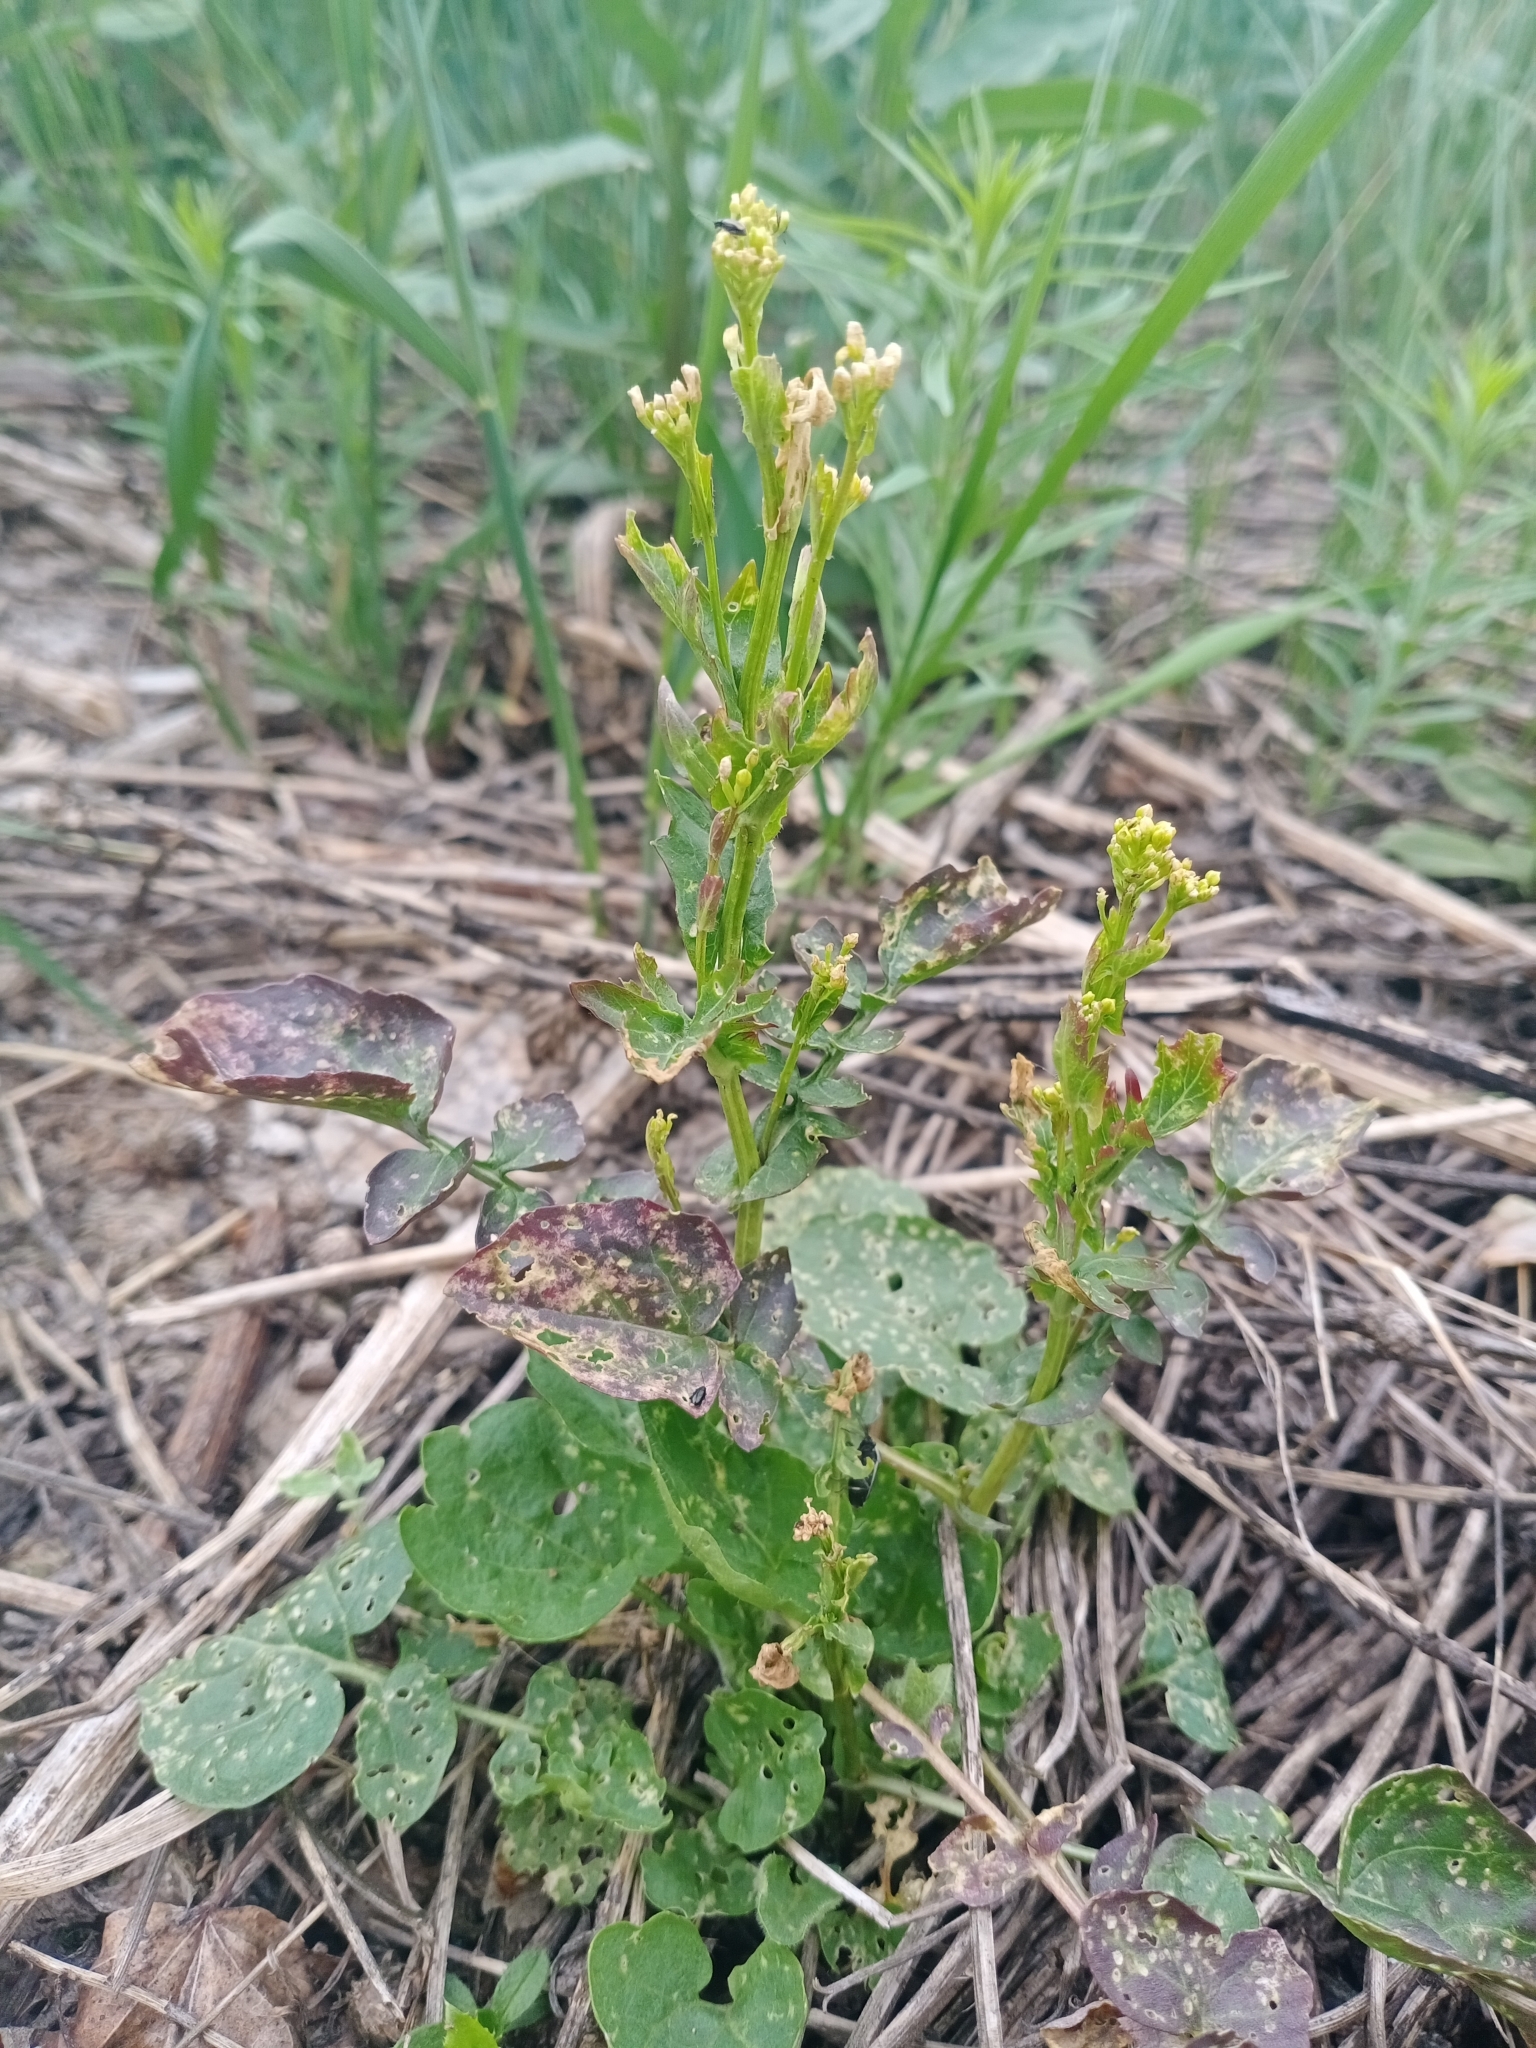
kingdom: Plantae
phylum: Tracheophyta
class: Magnoliopsida
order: Brassicales
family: Brassicaceae
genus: Barbarea
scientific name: Barbarea vulgaris
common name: Cressy-greens
